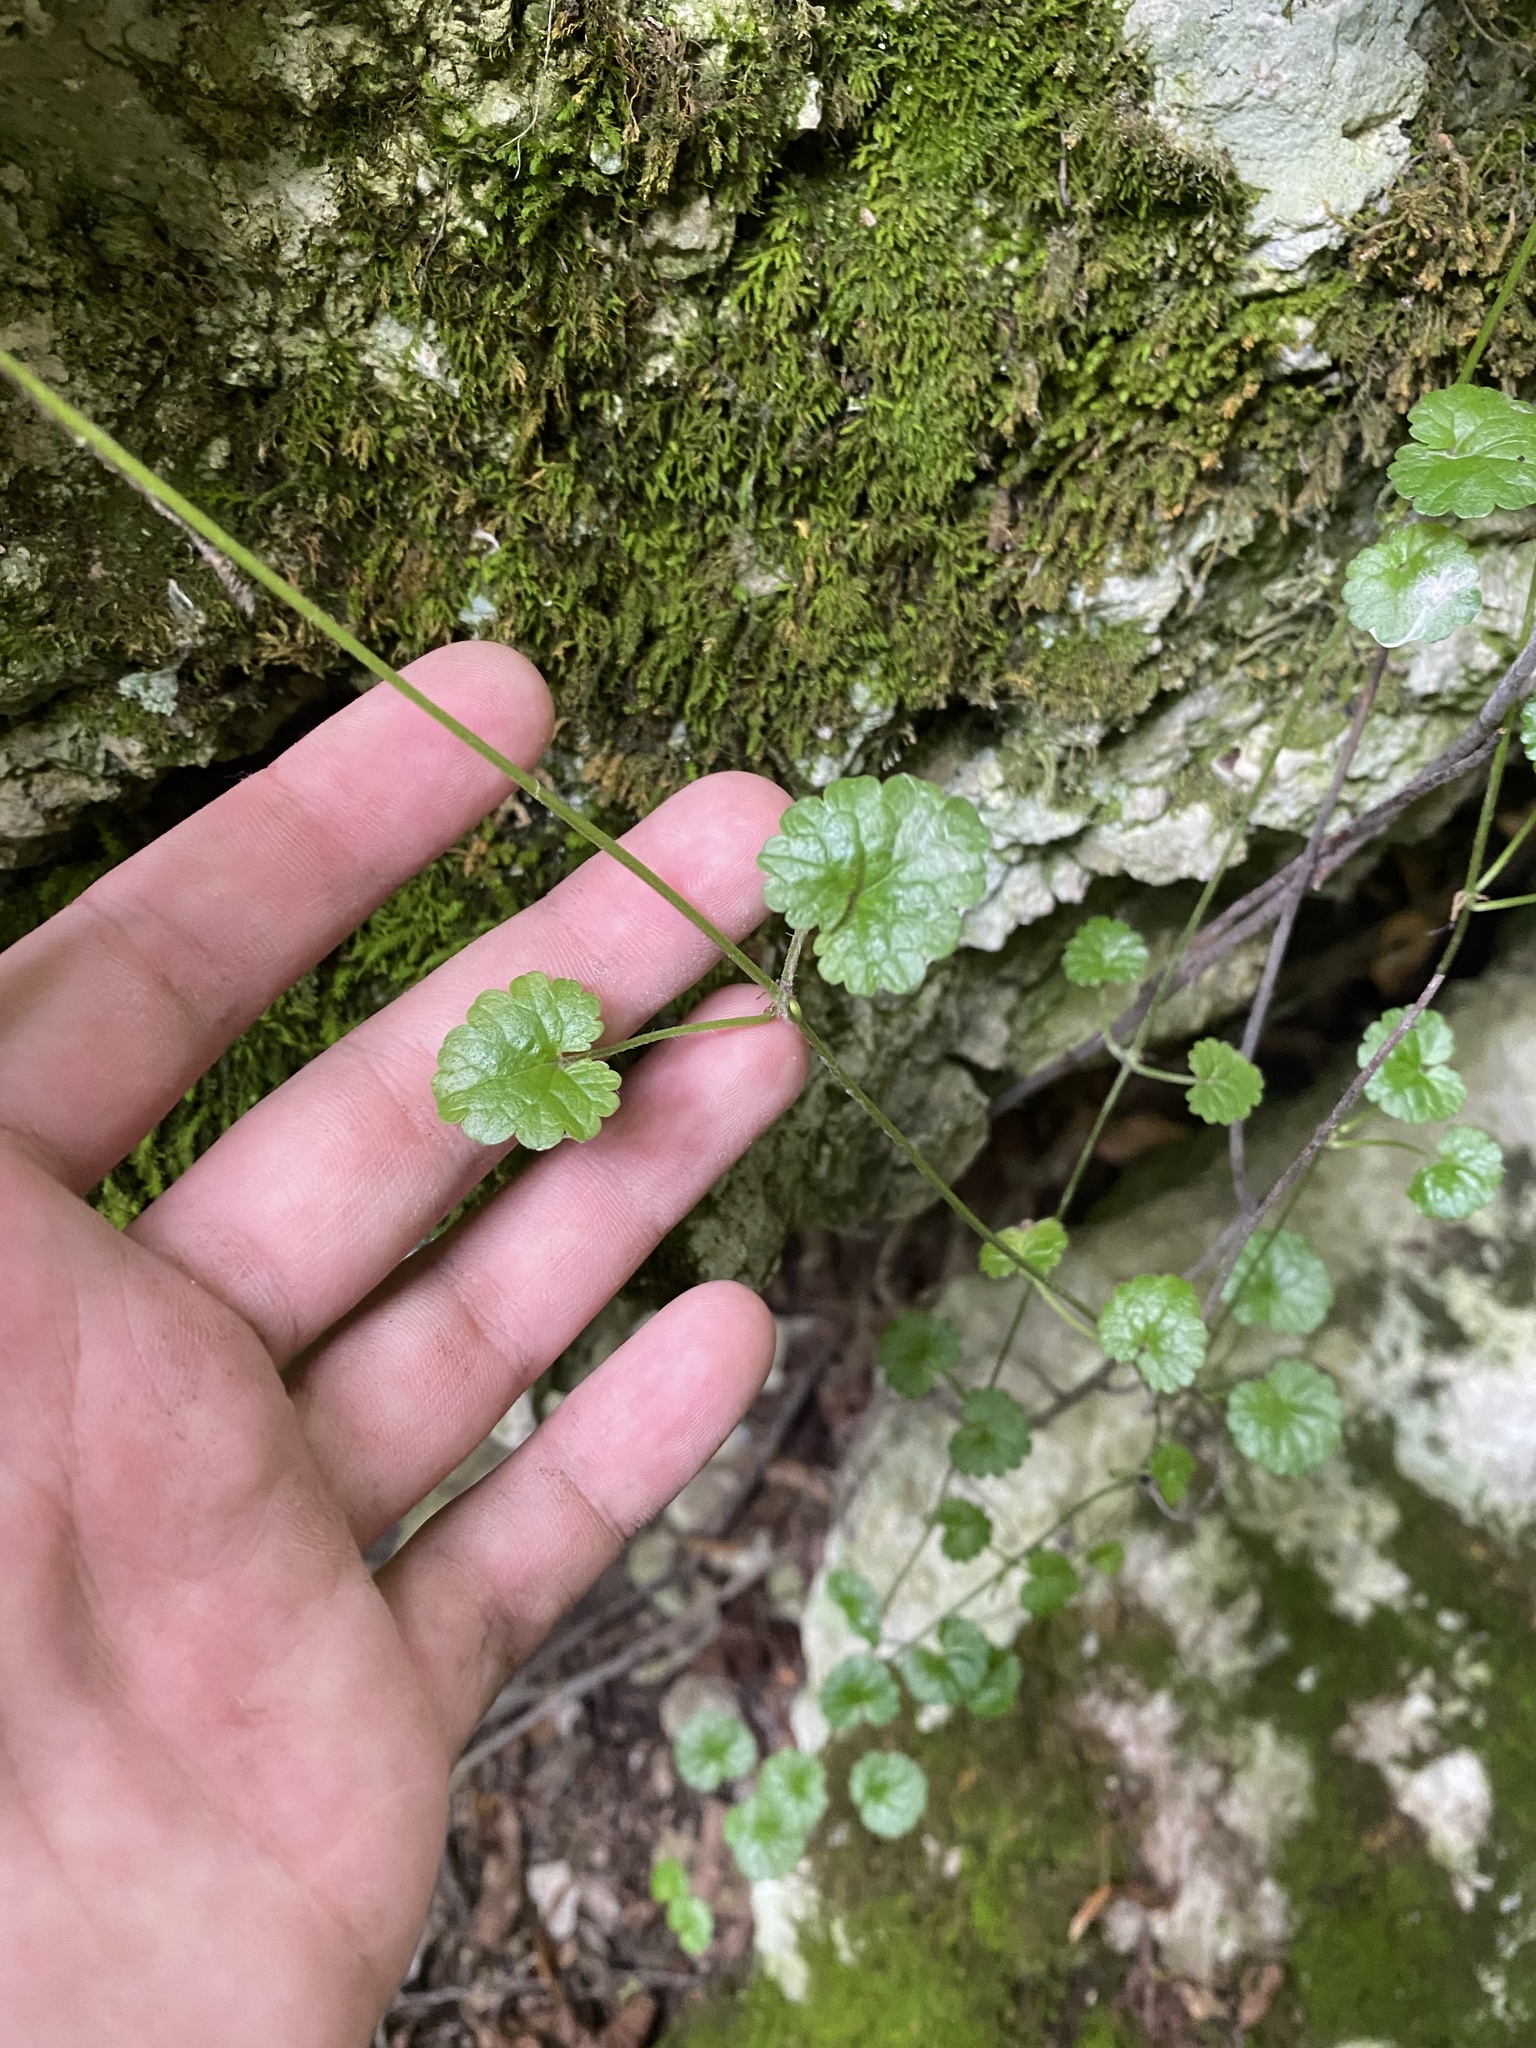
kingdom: Plantae
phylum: Tracheophyta
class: Magnoliopsida
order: Lamiales
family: Lamiaceae
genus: Glechoma
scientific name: Glechoma hederacea
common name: Ground ivy
